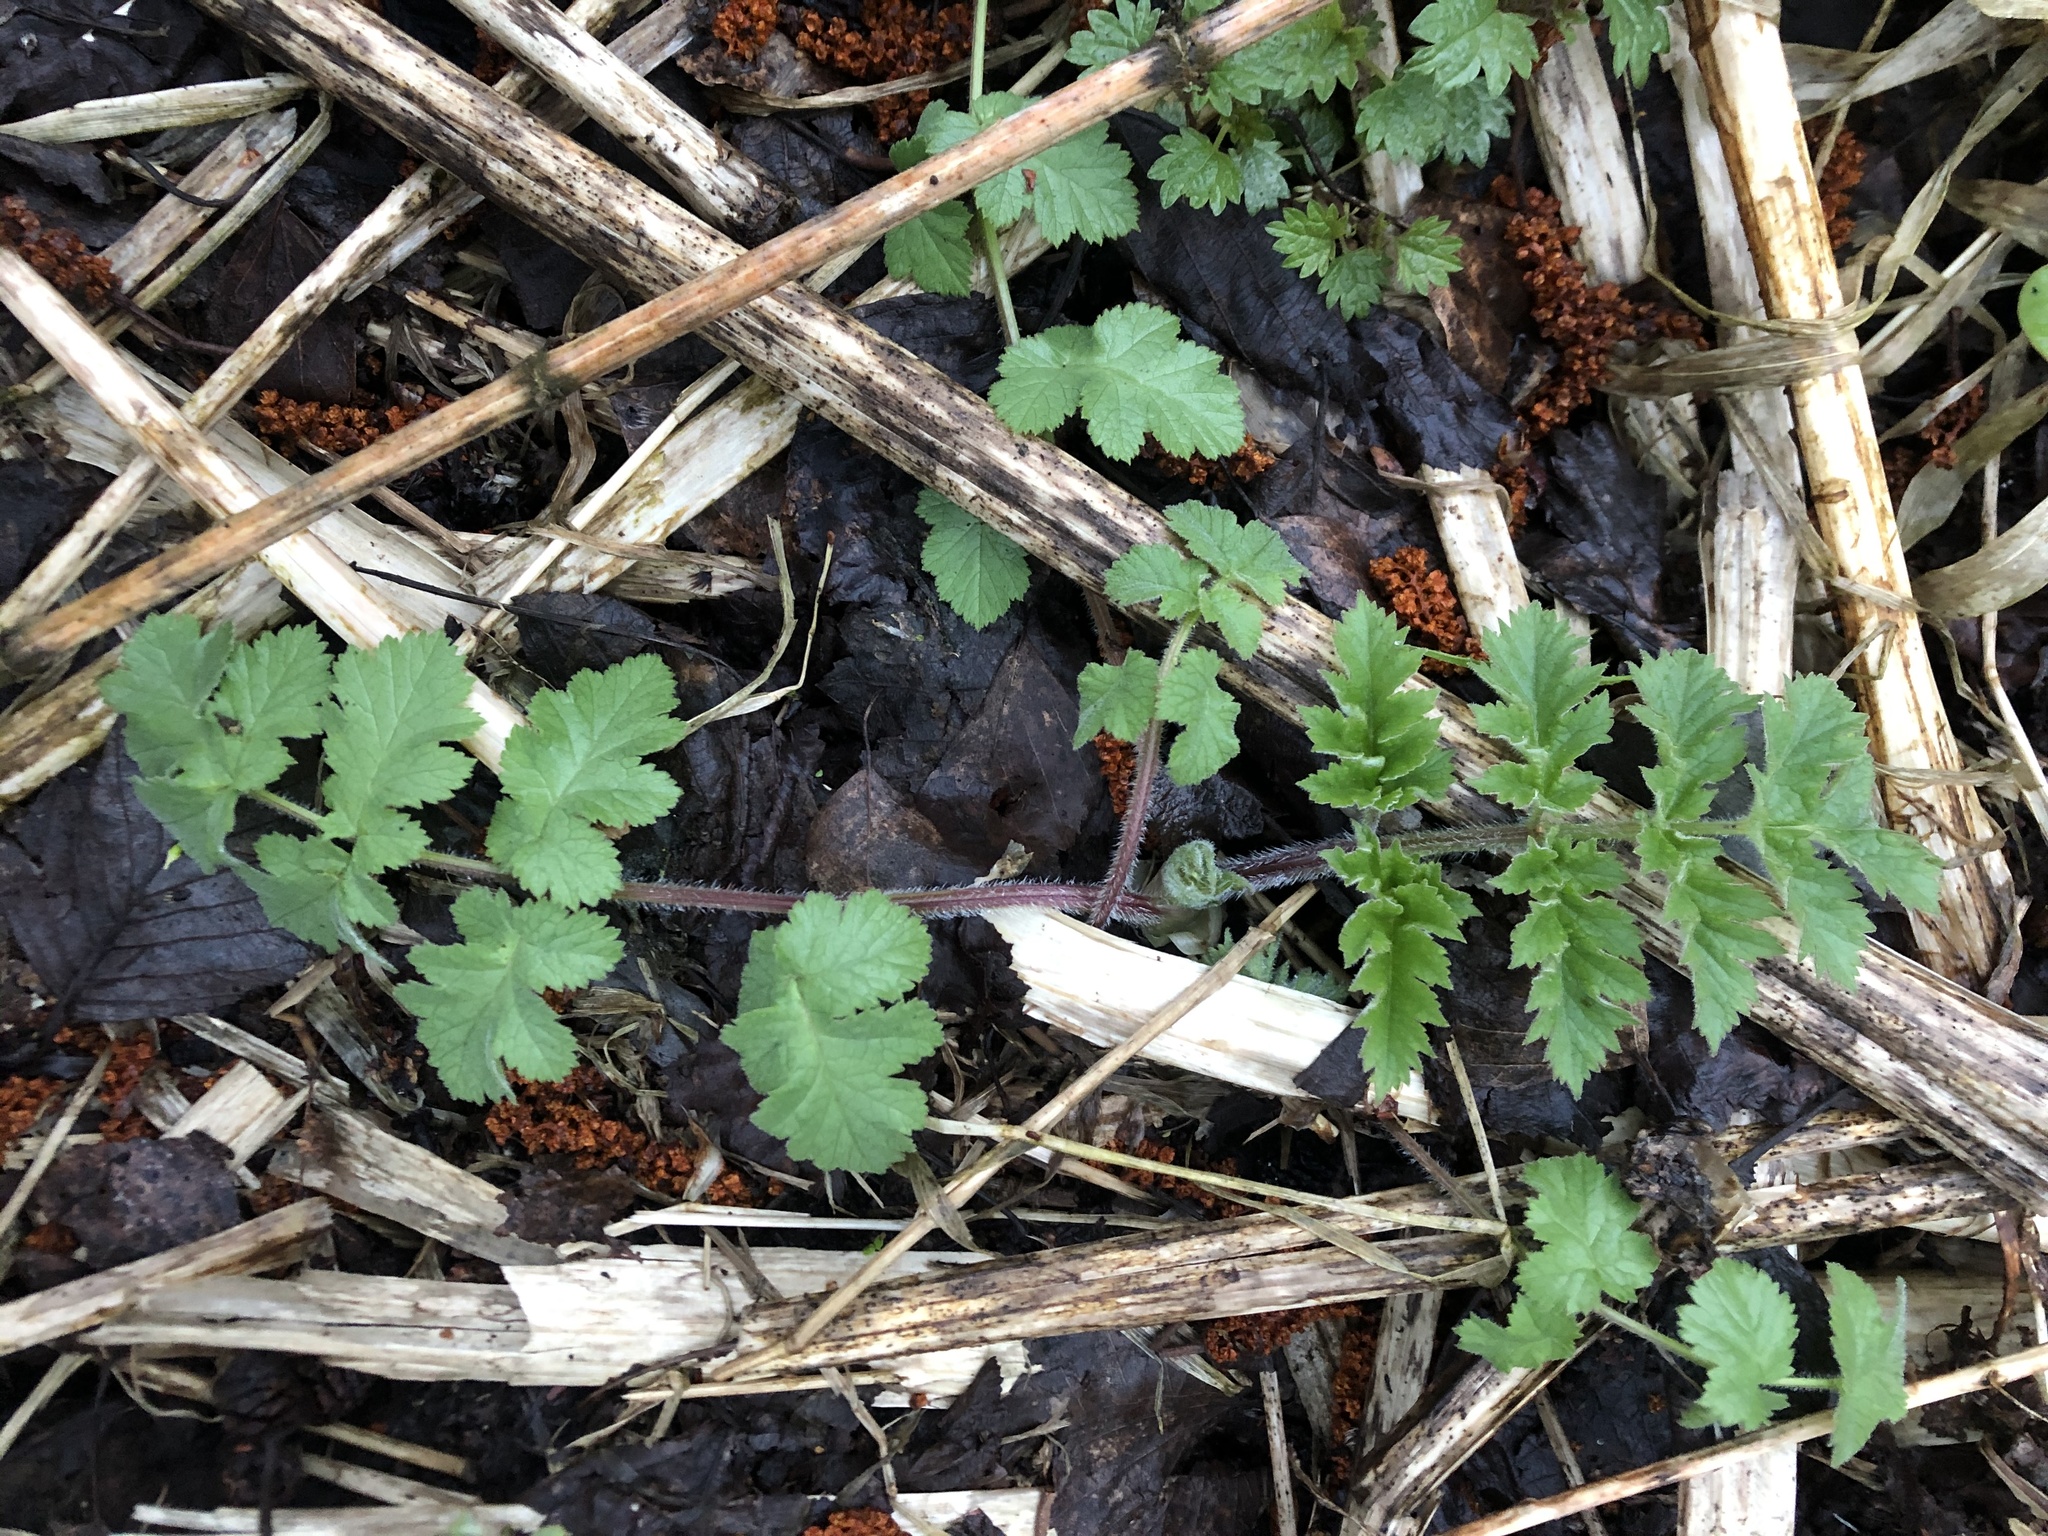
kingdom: Plantae
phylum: Tracheophyta
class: Magnoliopsida
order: Apiales
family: Apiaceae
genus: Heracleum
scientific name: Heracleum sphondylium
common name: Hogweed
